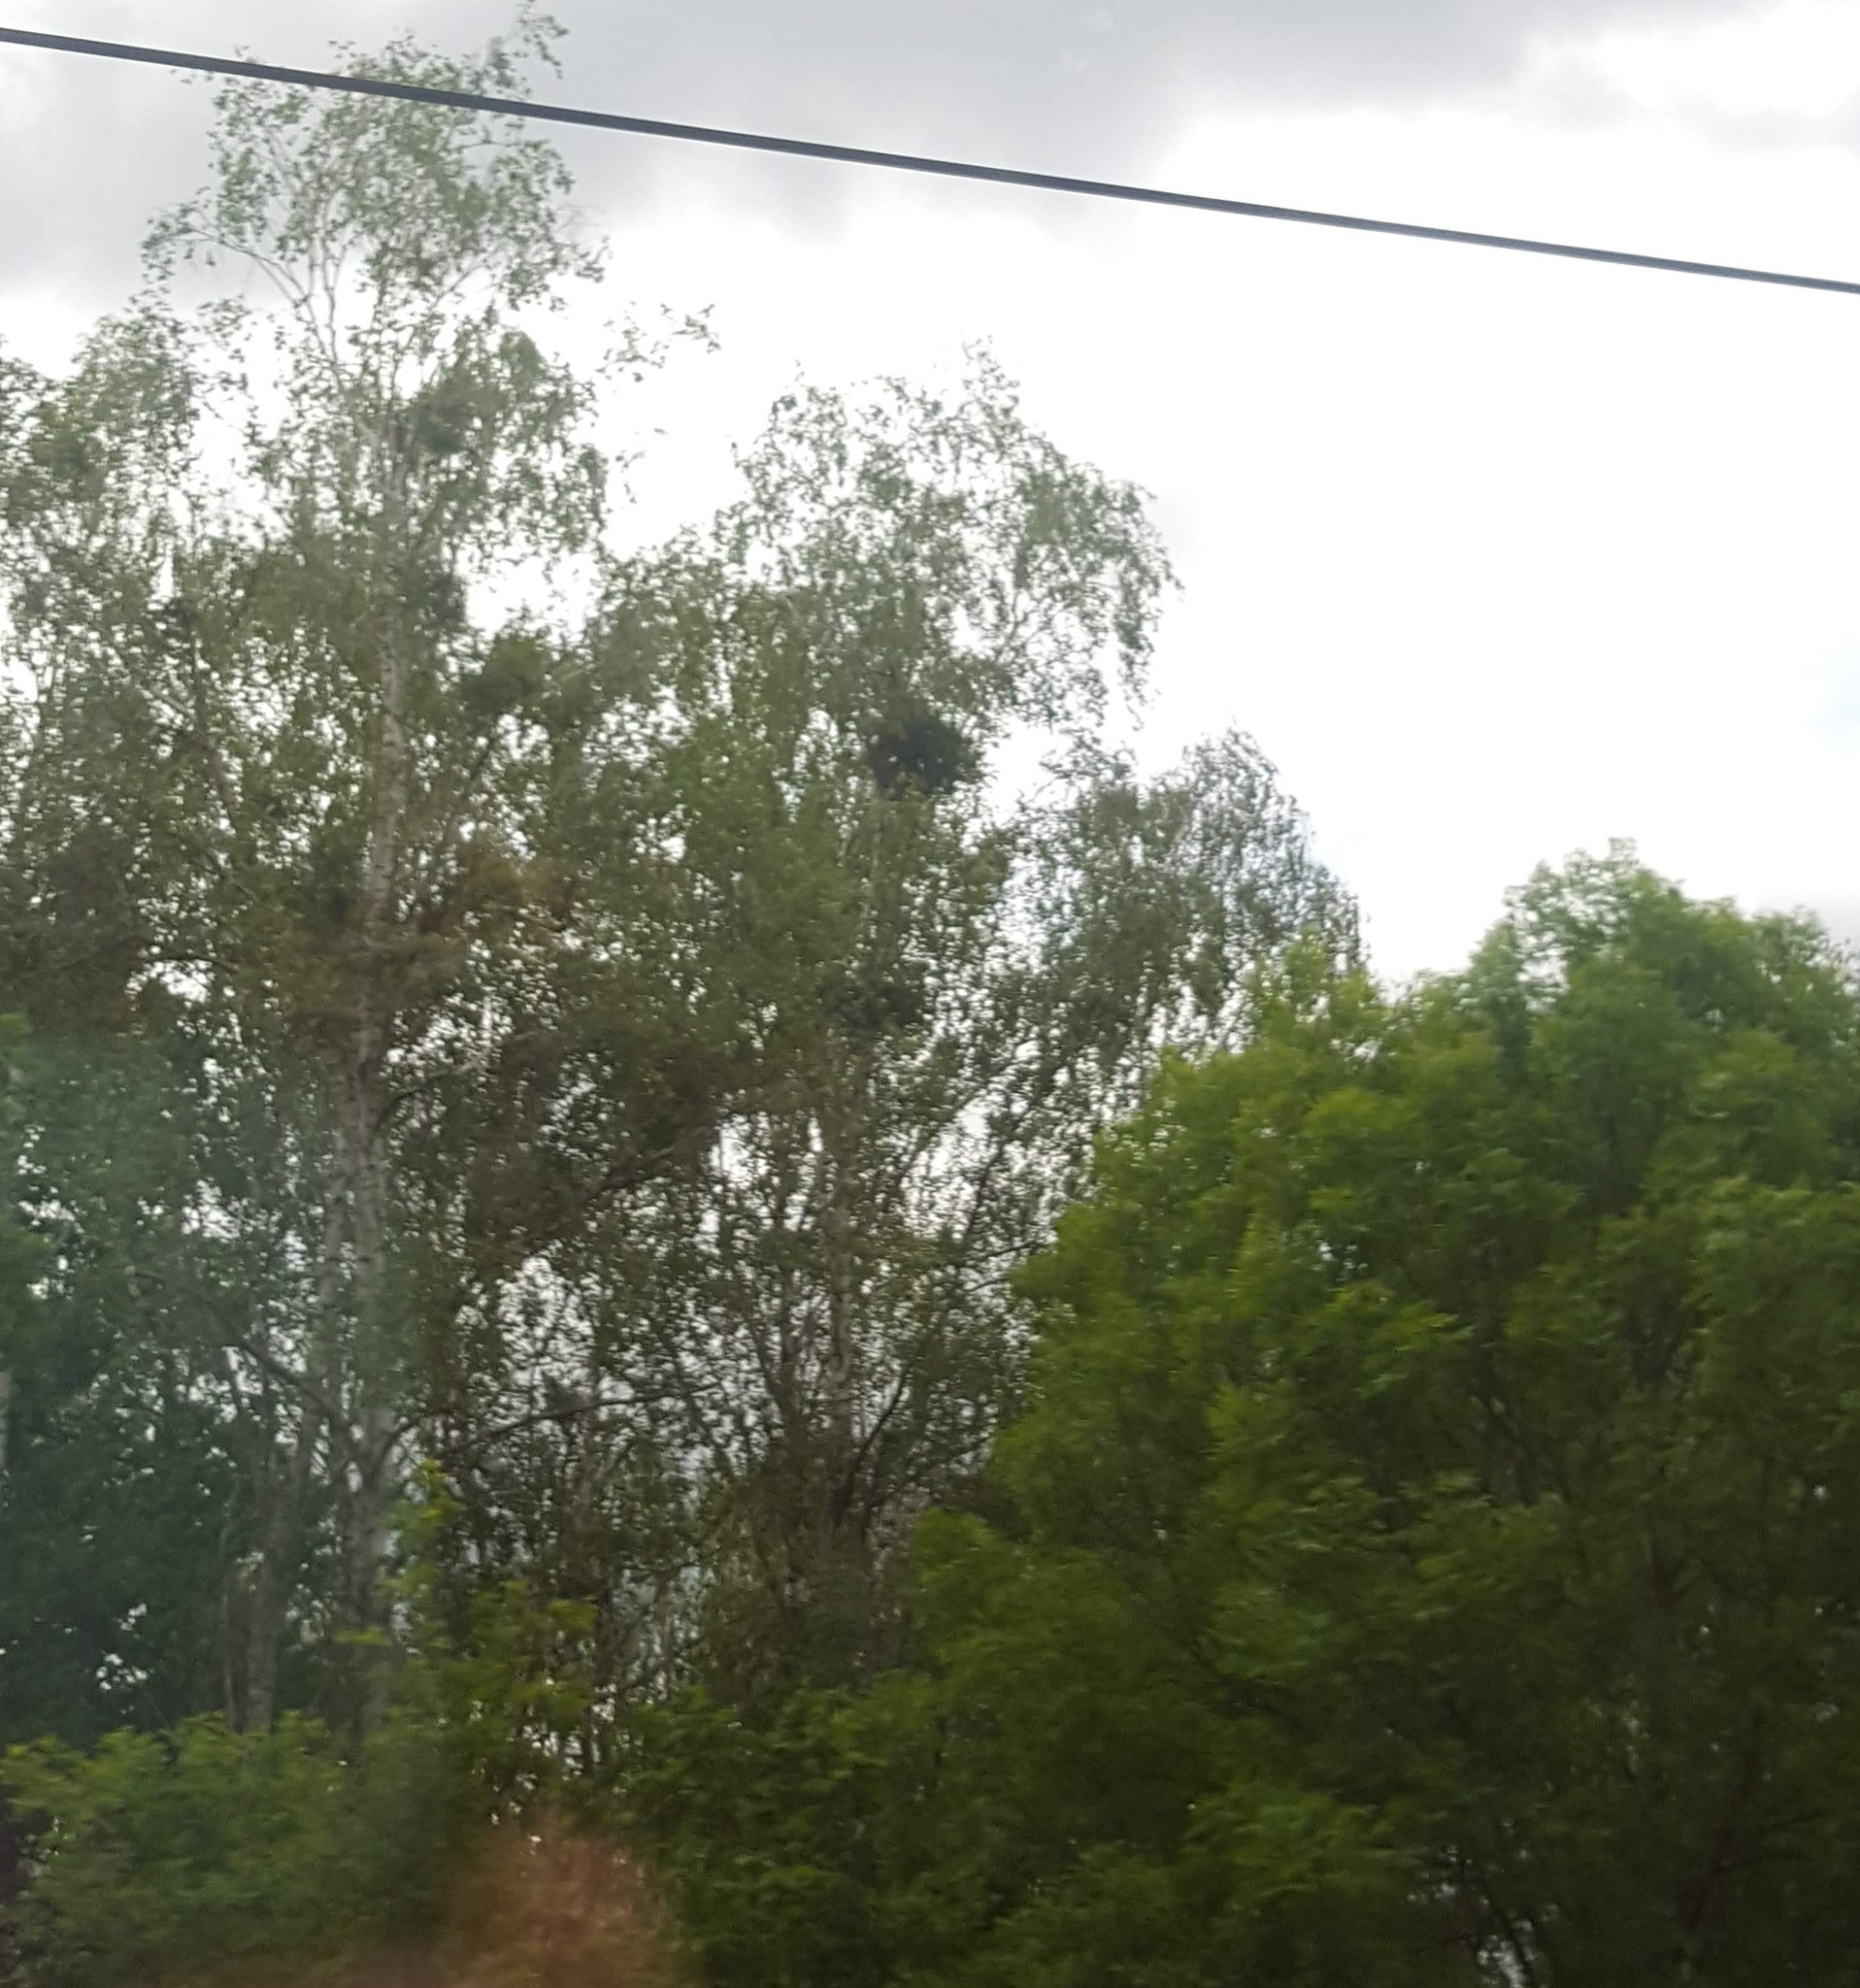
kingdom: Plantae
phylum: Tracheophyta
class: Magnoliopsida
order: Fagales
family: Betulaceae
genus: Betula
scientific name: Betula pendula
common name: Silver birch
